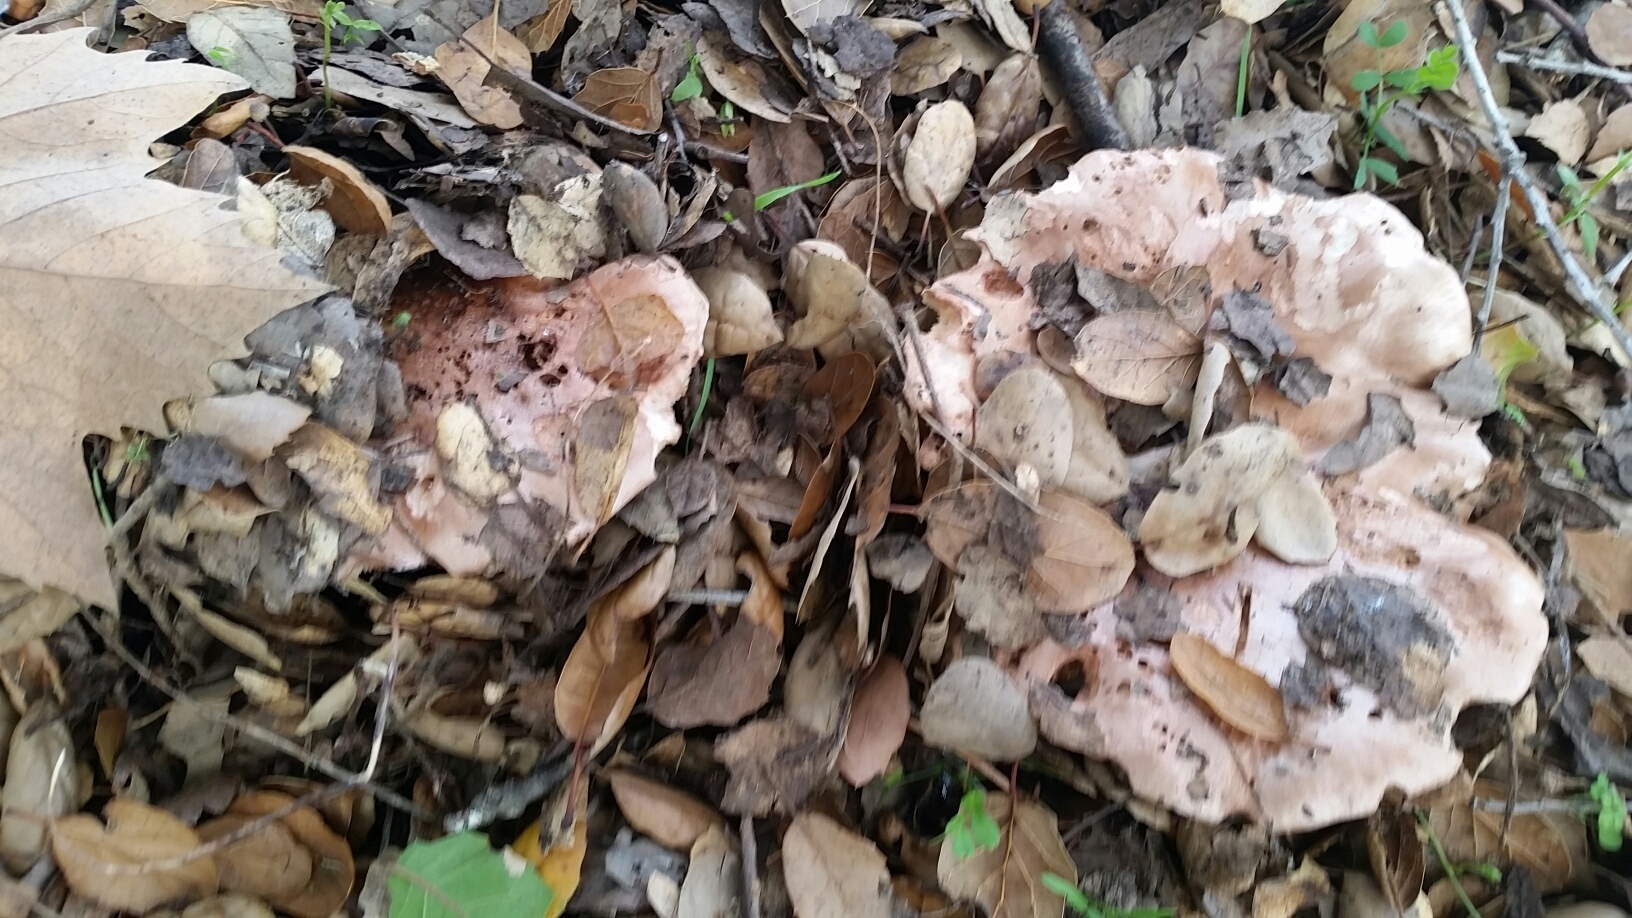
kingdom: Fungi
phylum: Basidiomycota
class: Agaricomycetes
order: Agaricales
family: Tricholomataceae
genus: Melanoleuca
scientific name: Melanoleuca dryophila
